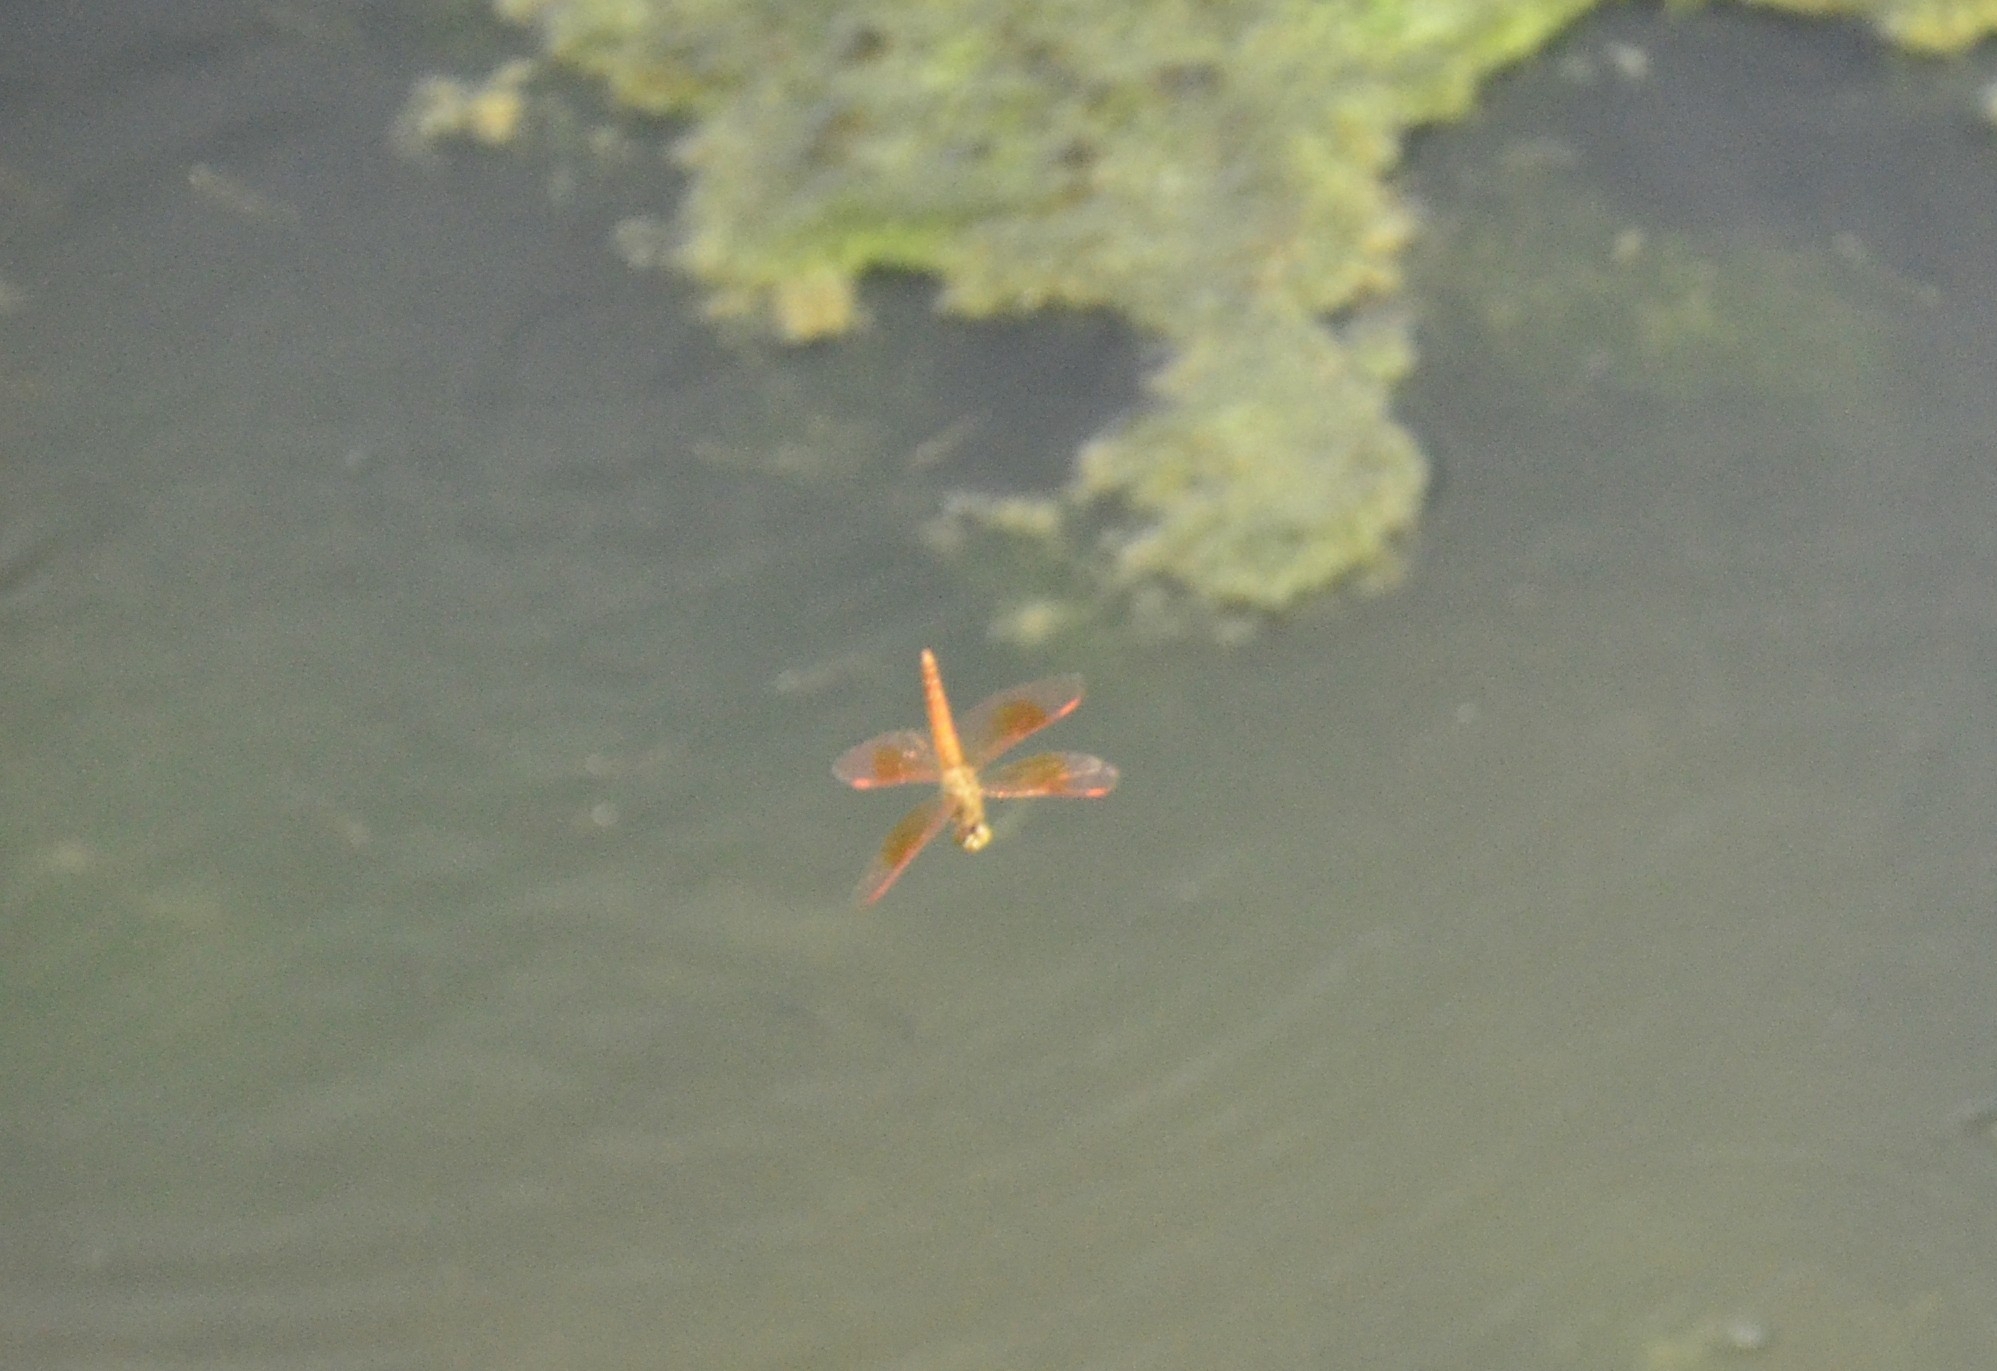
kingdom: Animalia
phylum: Arthropoda
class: Insecta
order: Odonata
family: Libellulidae
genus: Brachythemis
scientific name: Brachythemis contaminata
